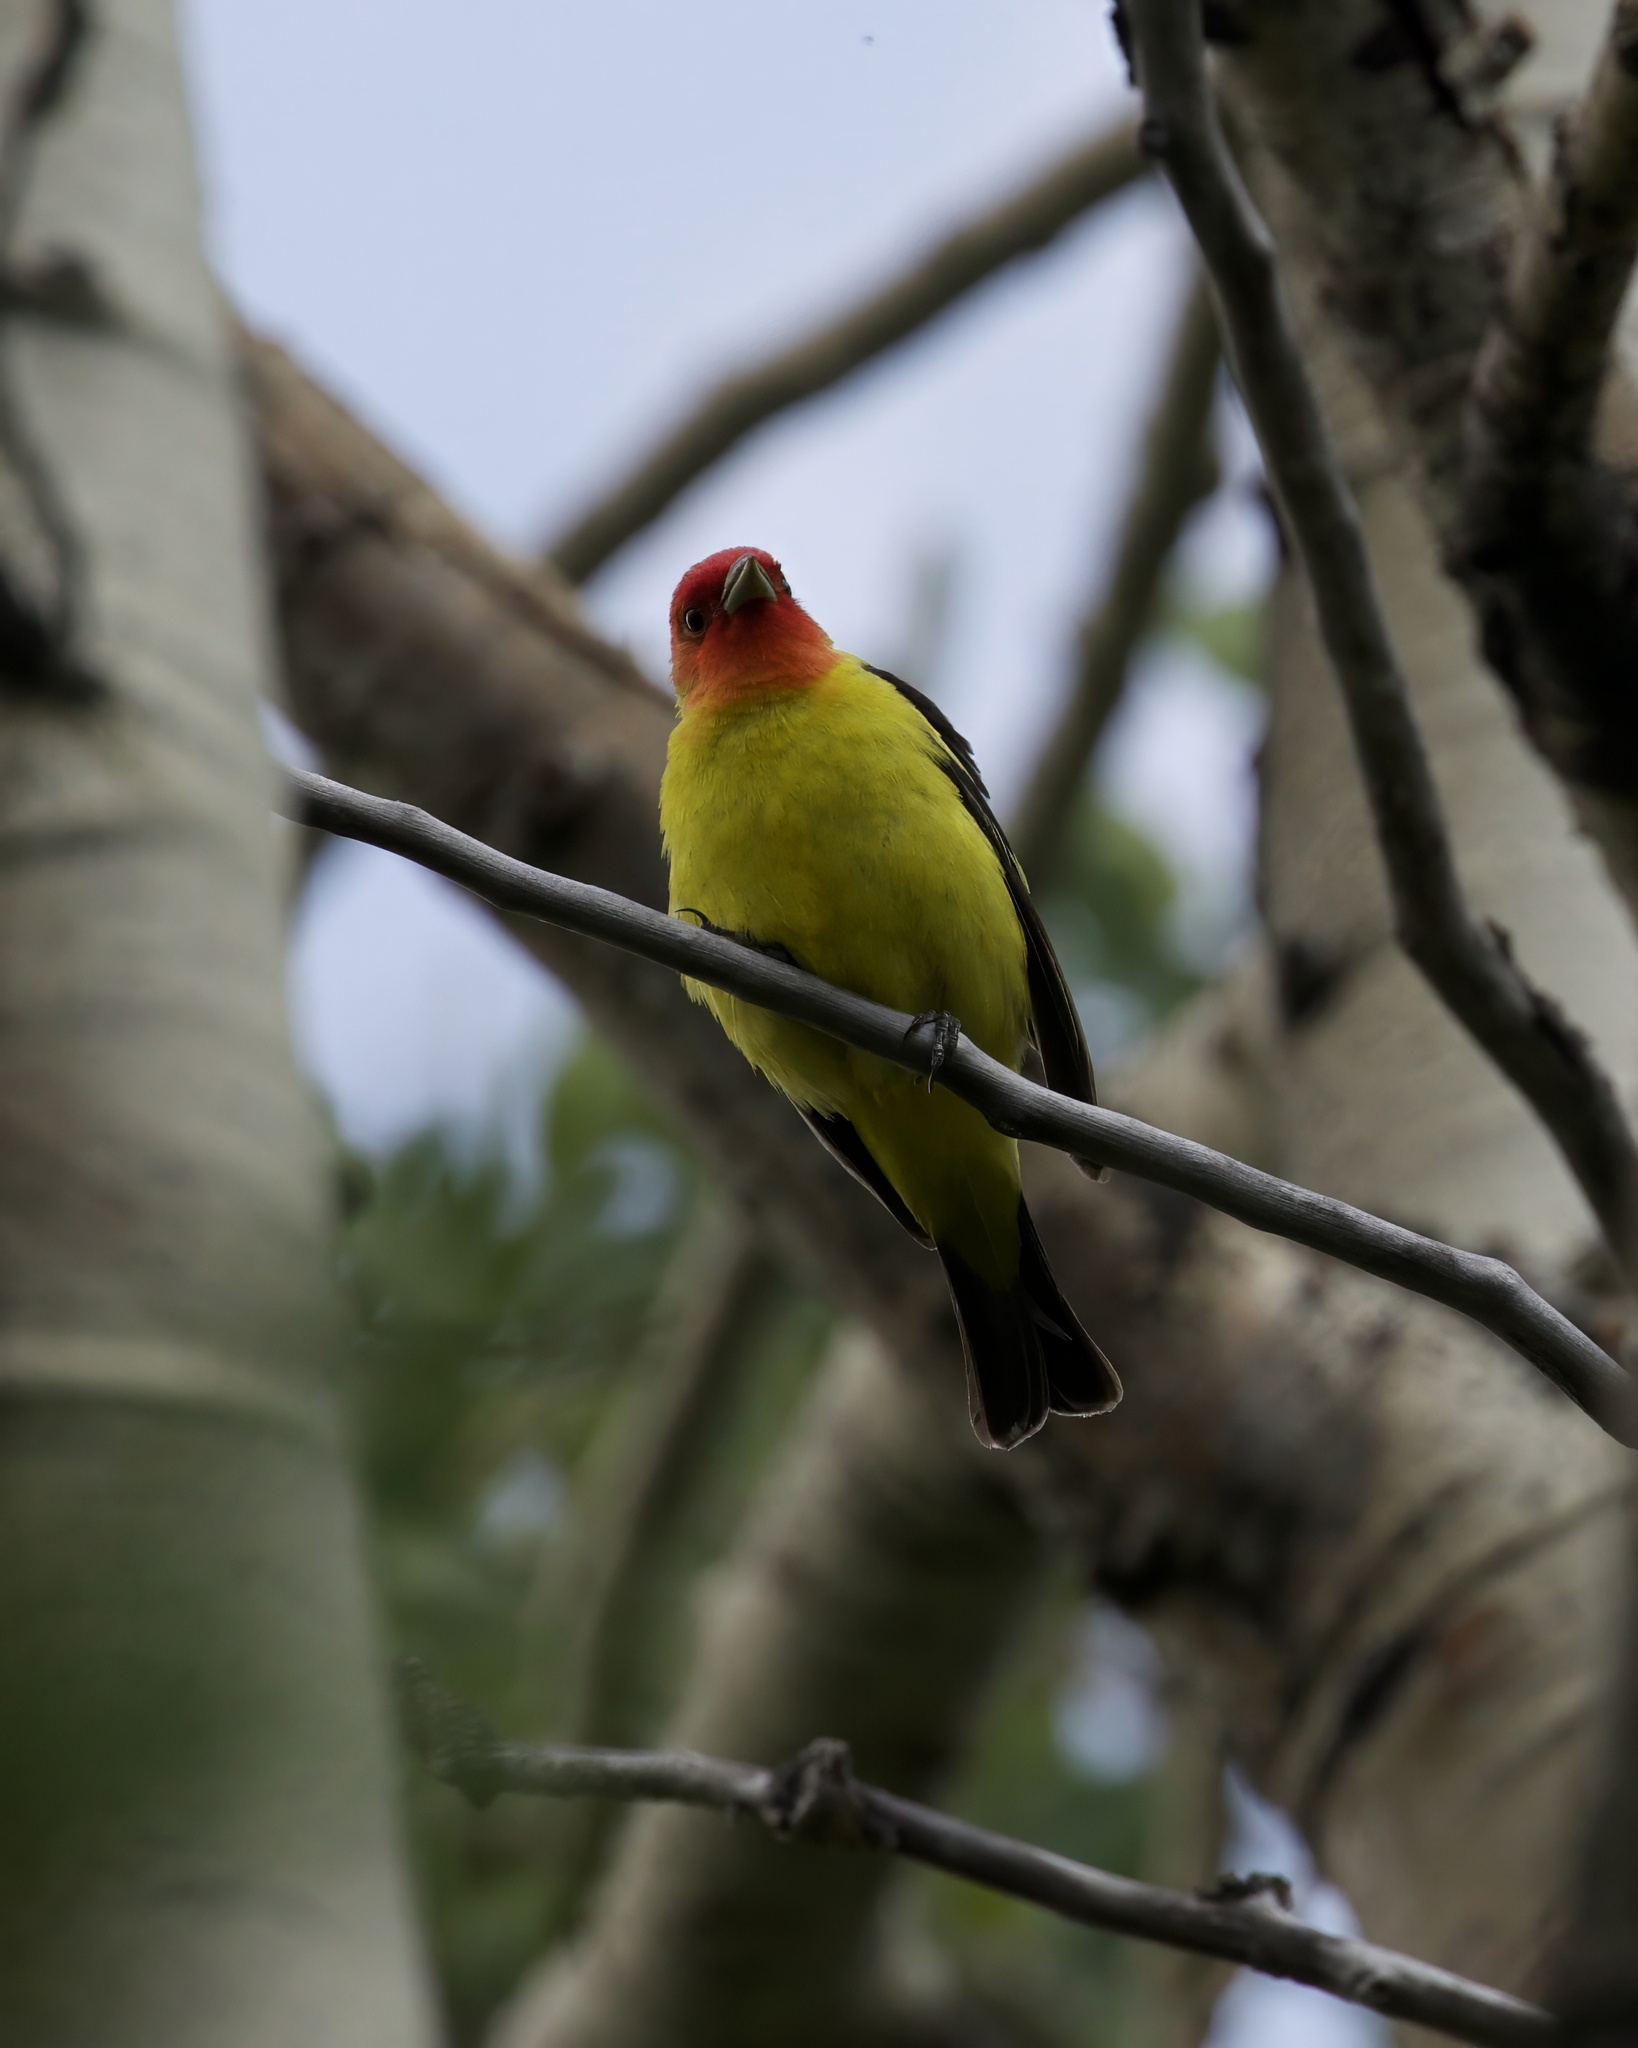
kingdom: Animalia
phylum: Chordata
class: Aves
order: Passeriformes
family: Cardinalidae
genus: Piranga
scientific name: Piranga ludoviciana
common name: Western tanager
